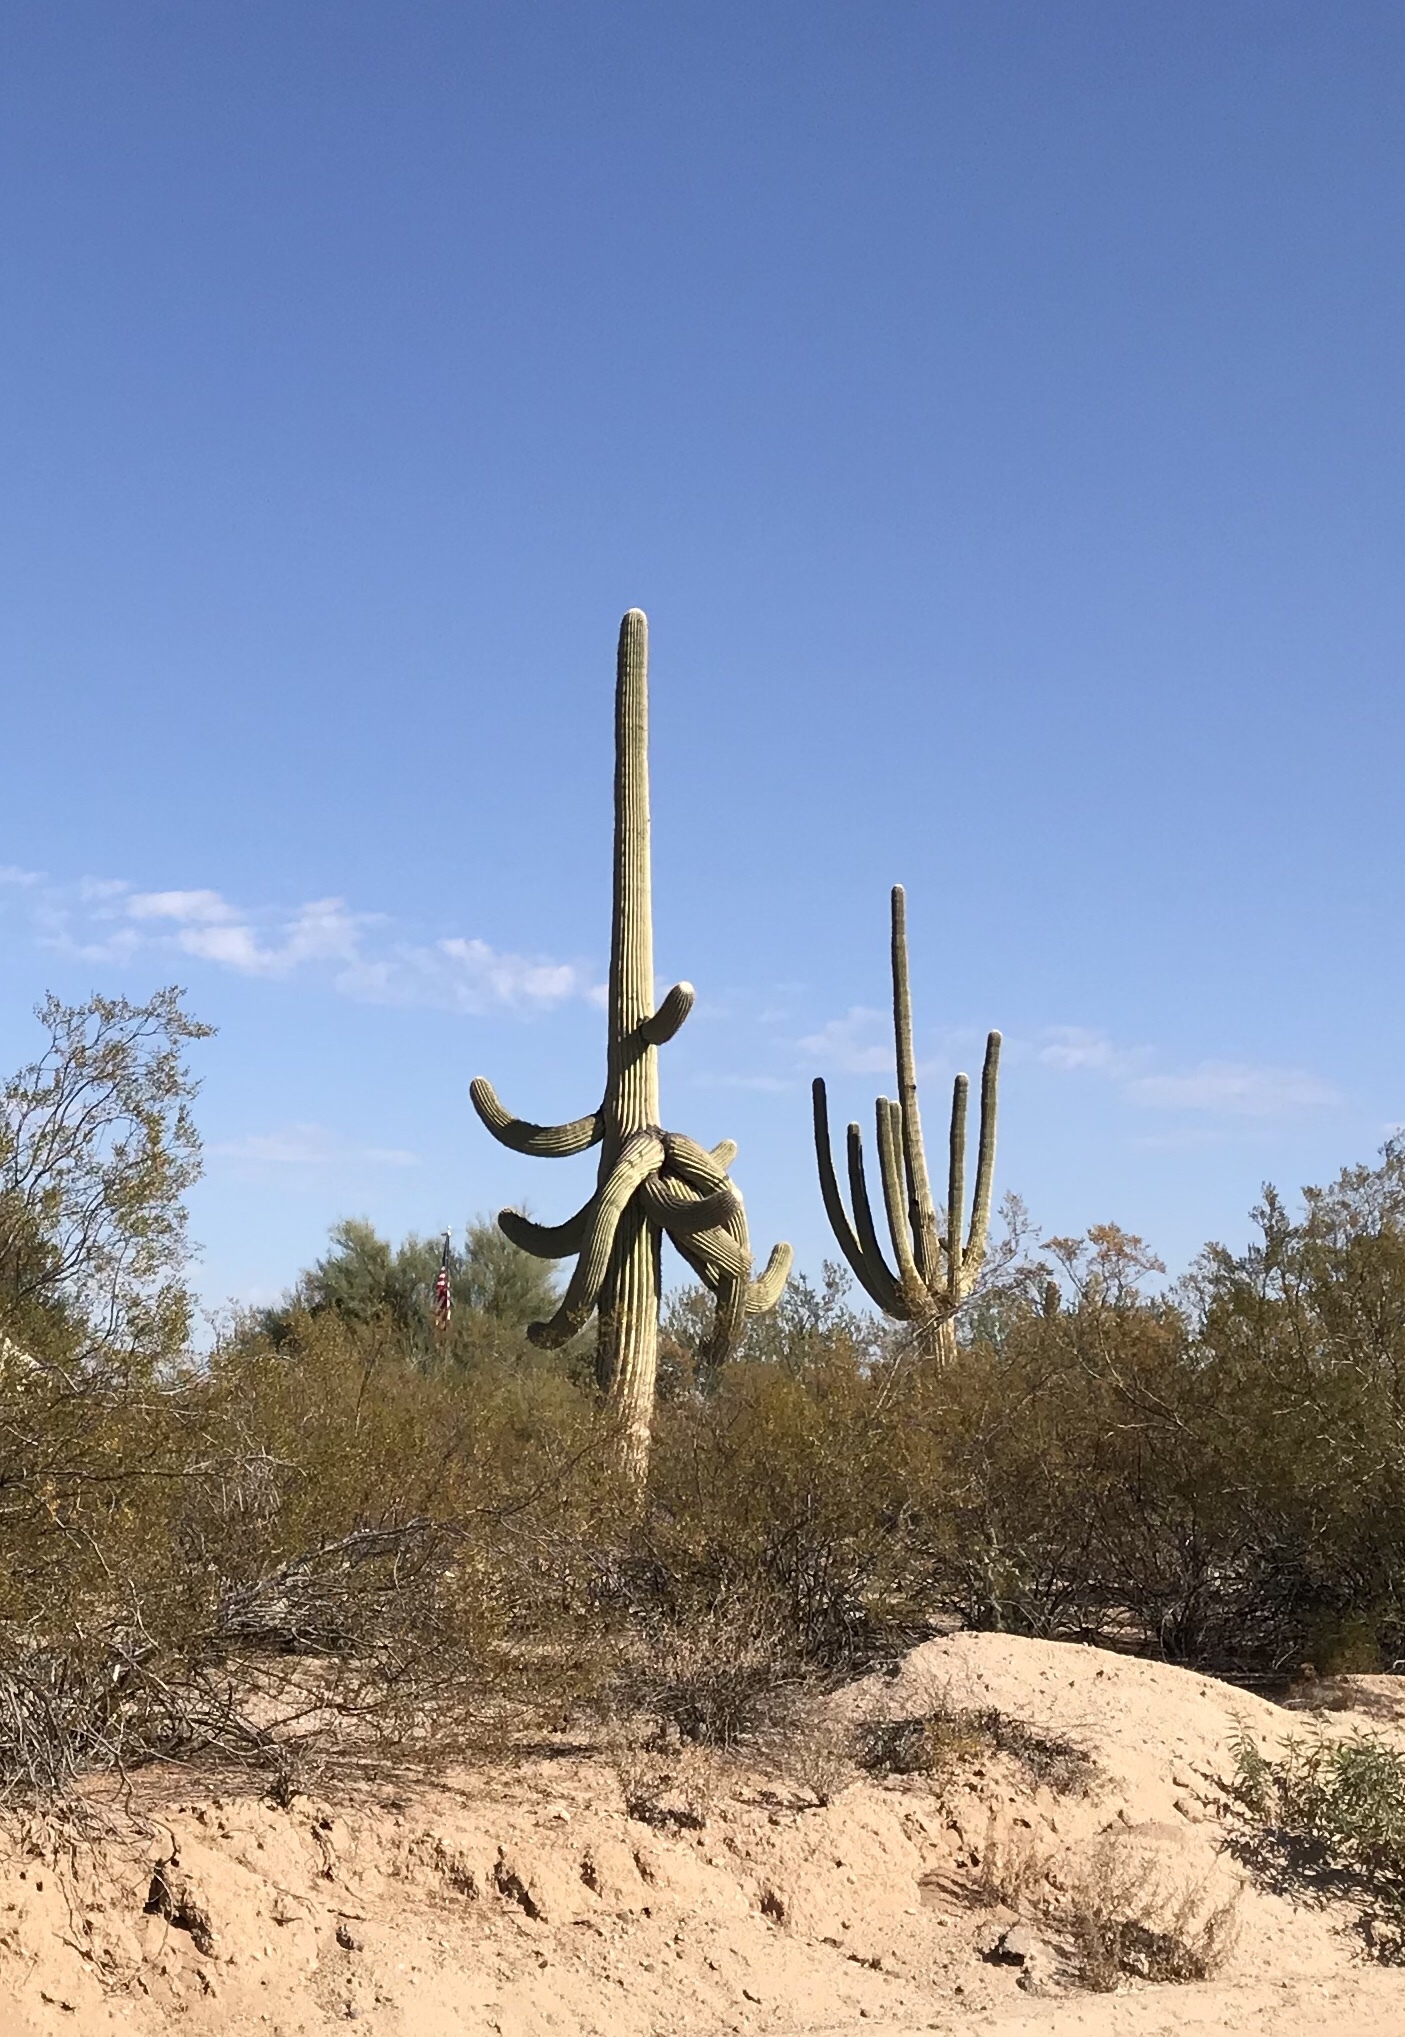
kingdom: Plantae
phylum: Tracheophyta
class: Magnoliopsida
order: Caryophyllales
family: Cactaceae
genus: Carnegiea
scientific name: Carnegiea gigantea
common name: Saguaro
